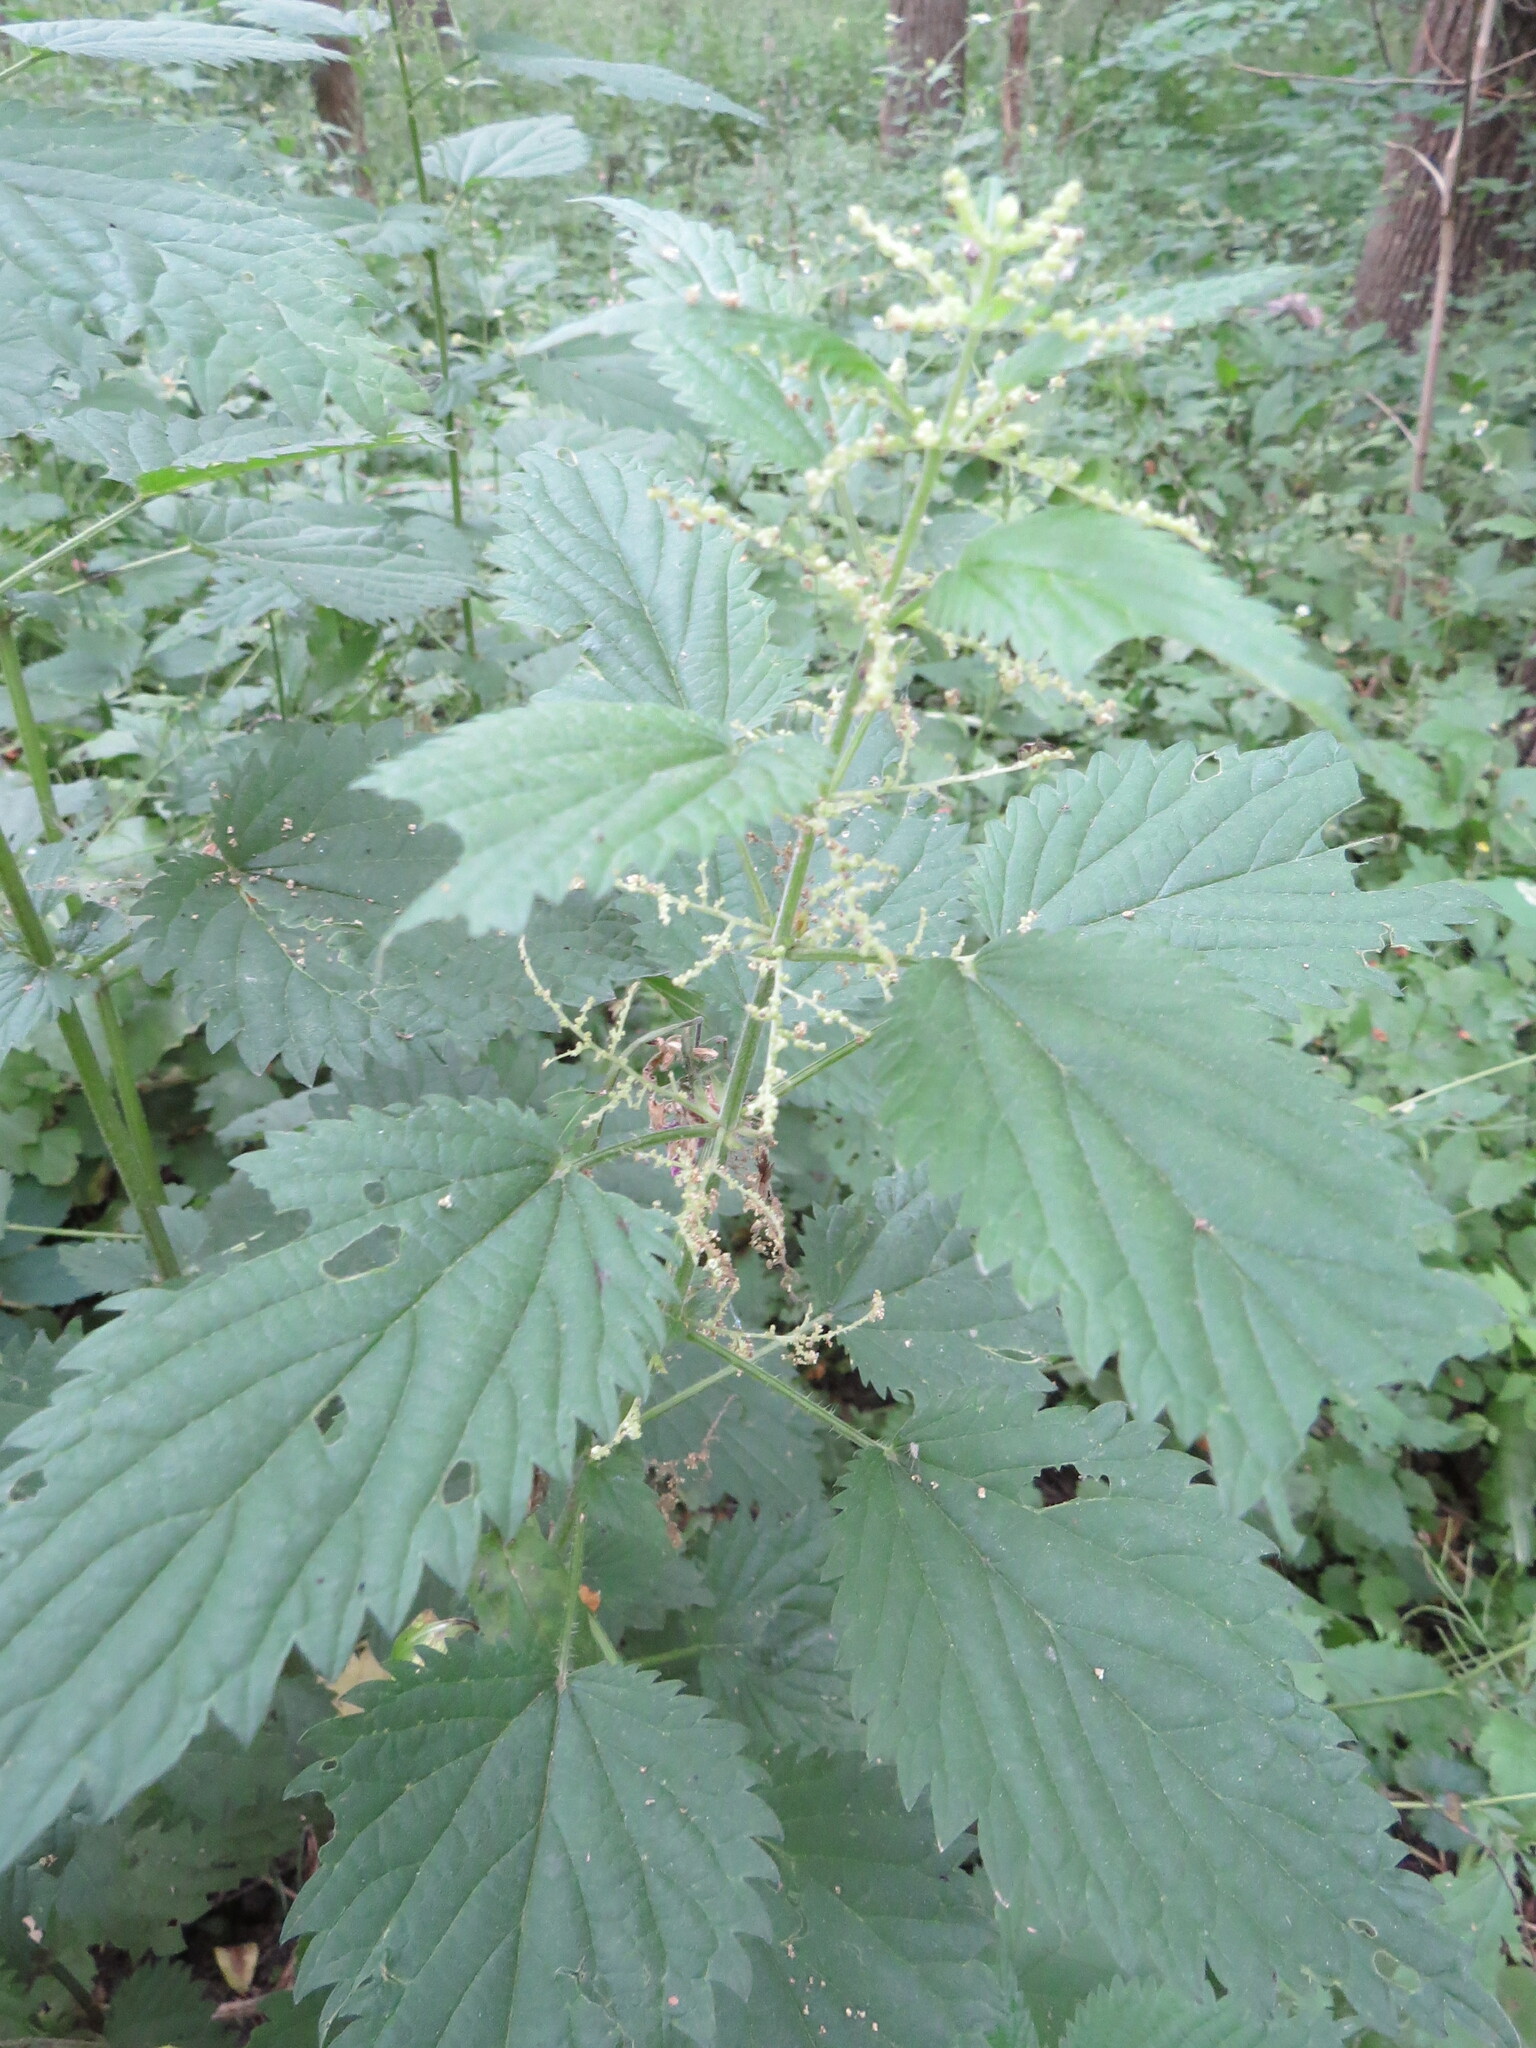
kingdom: Plantae
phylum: Tracheophyta
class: Magnoliopsida
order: Rosales
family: Urticaceae
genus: Urtica
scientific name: Urtica dioica
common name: Common nettle
